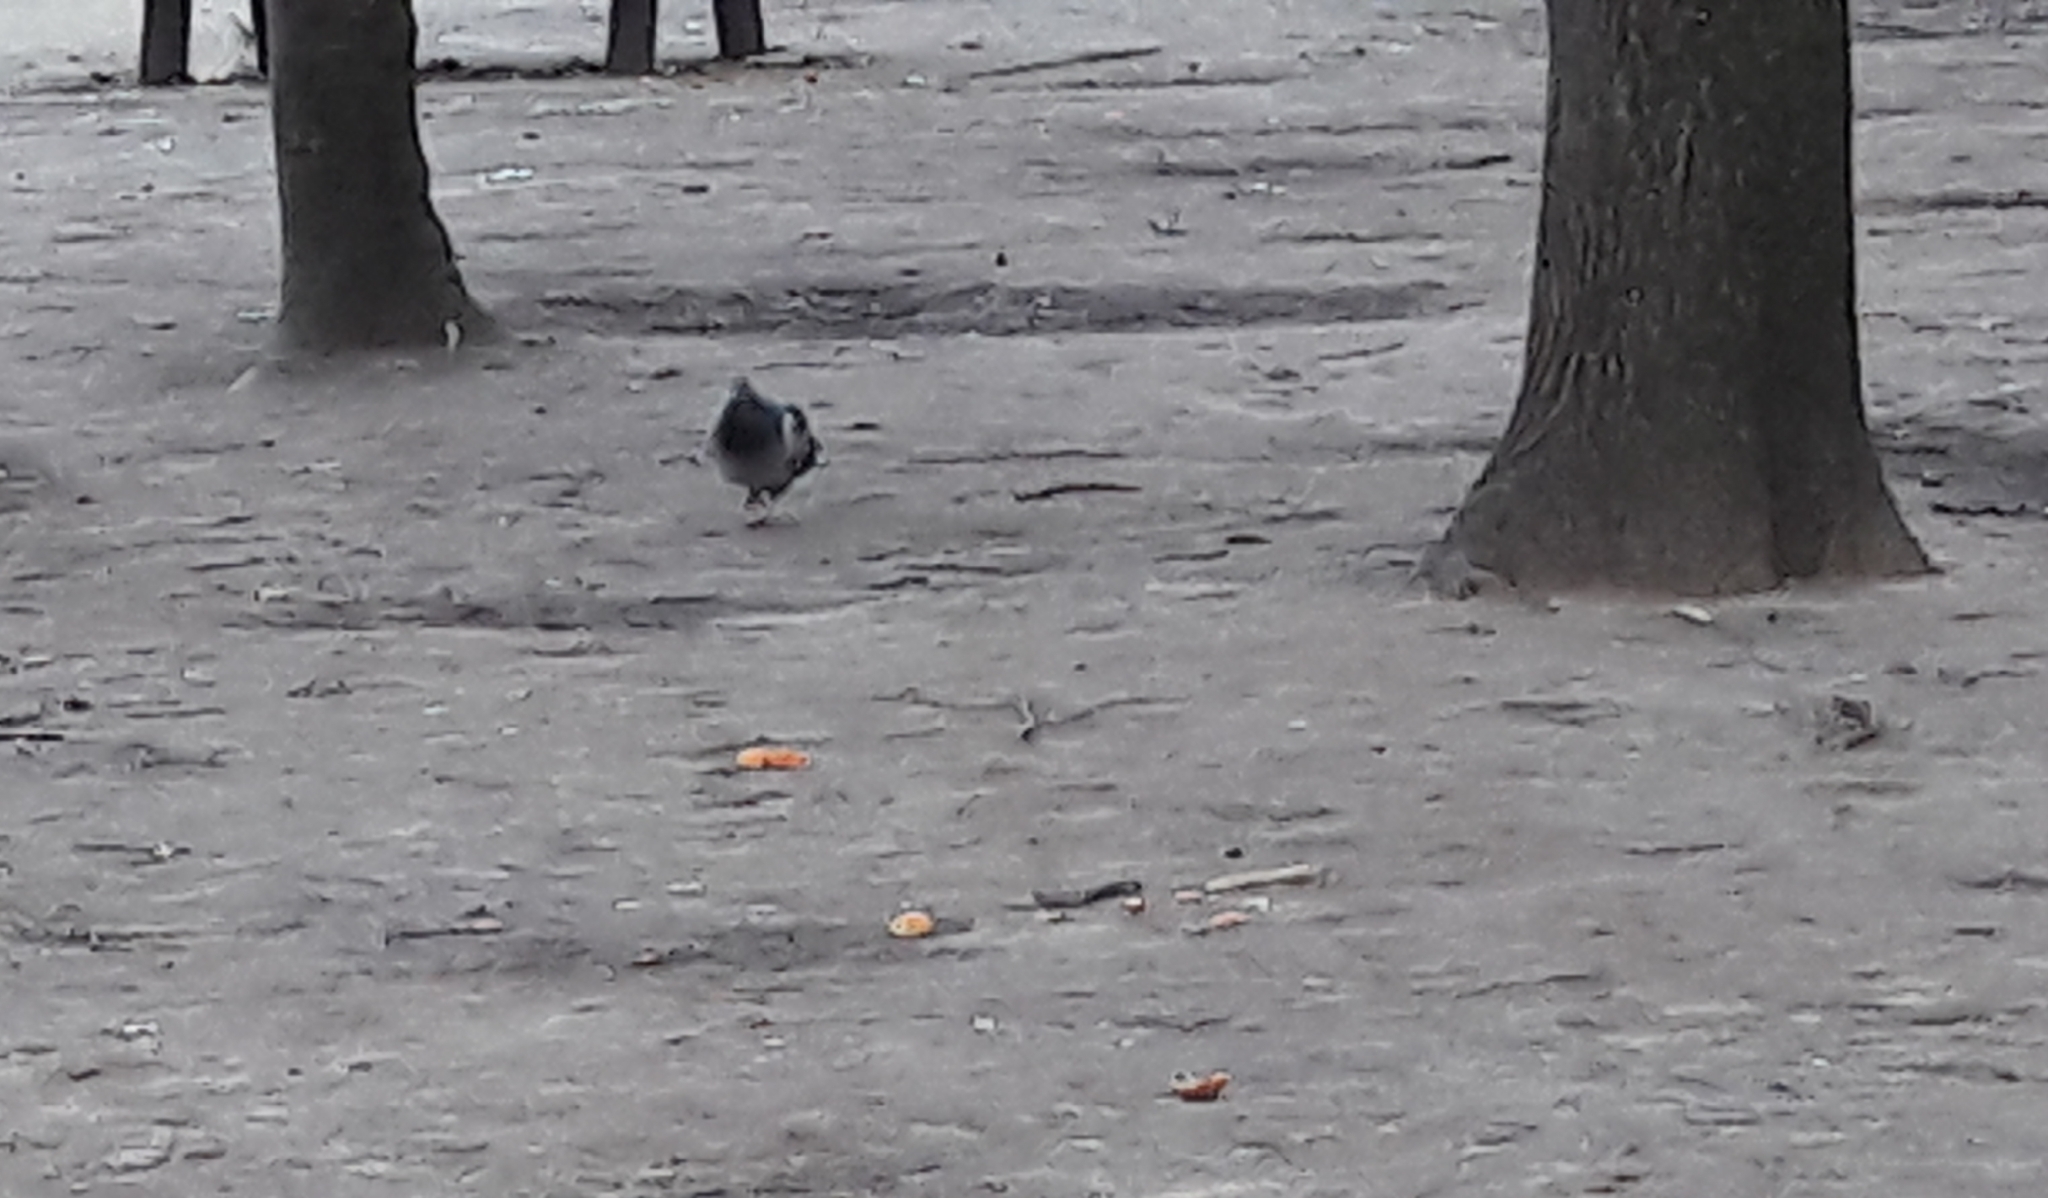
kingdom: Animalia
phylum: Chordata
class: Aves
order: Columbiformes
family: Columbidae
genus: Columba
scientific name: Columba livia
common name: Rock pigeon
